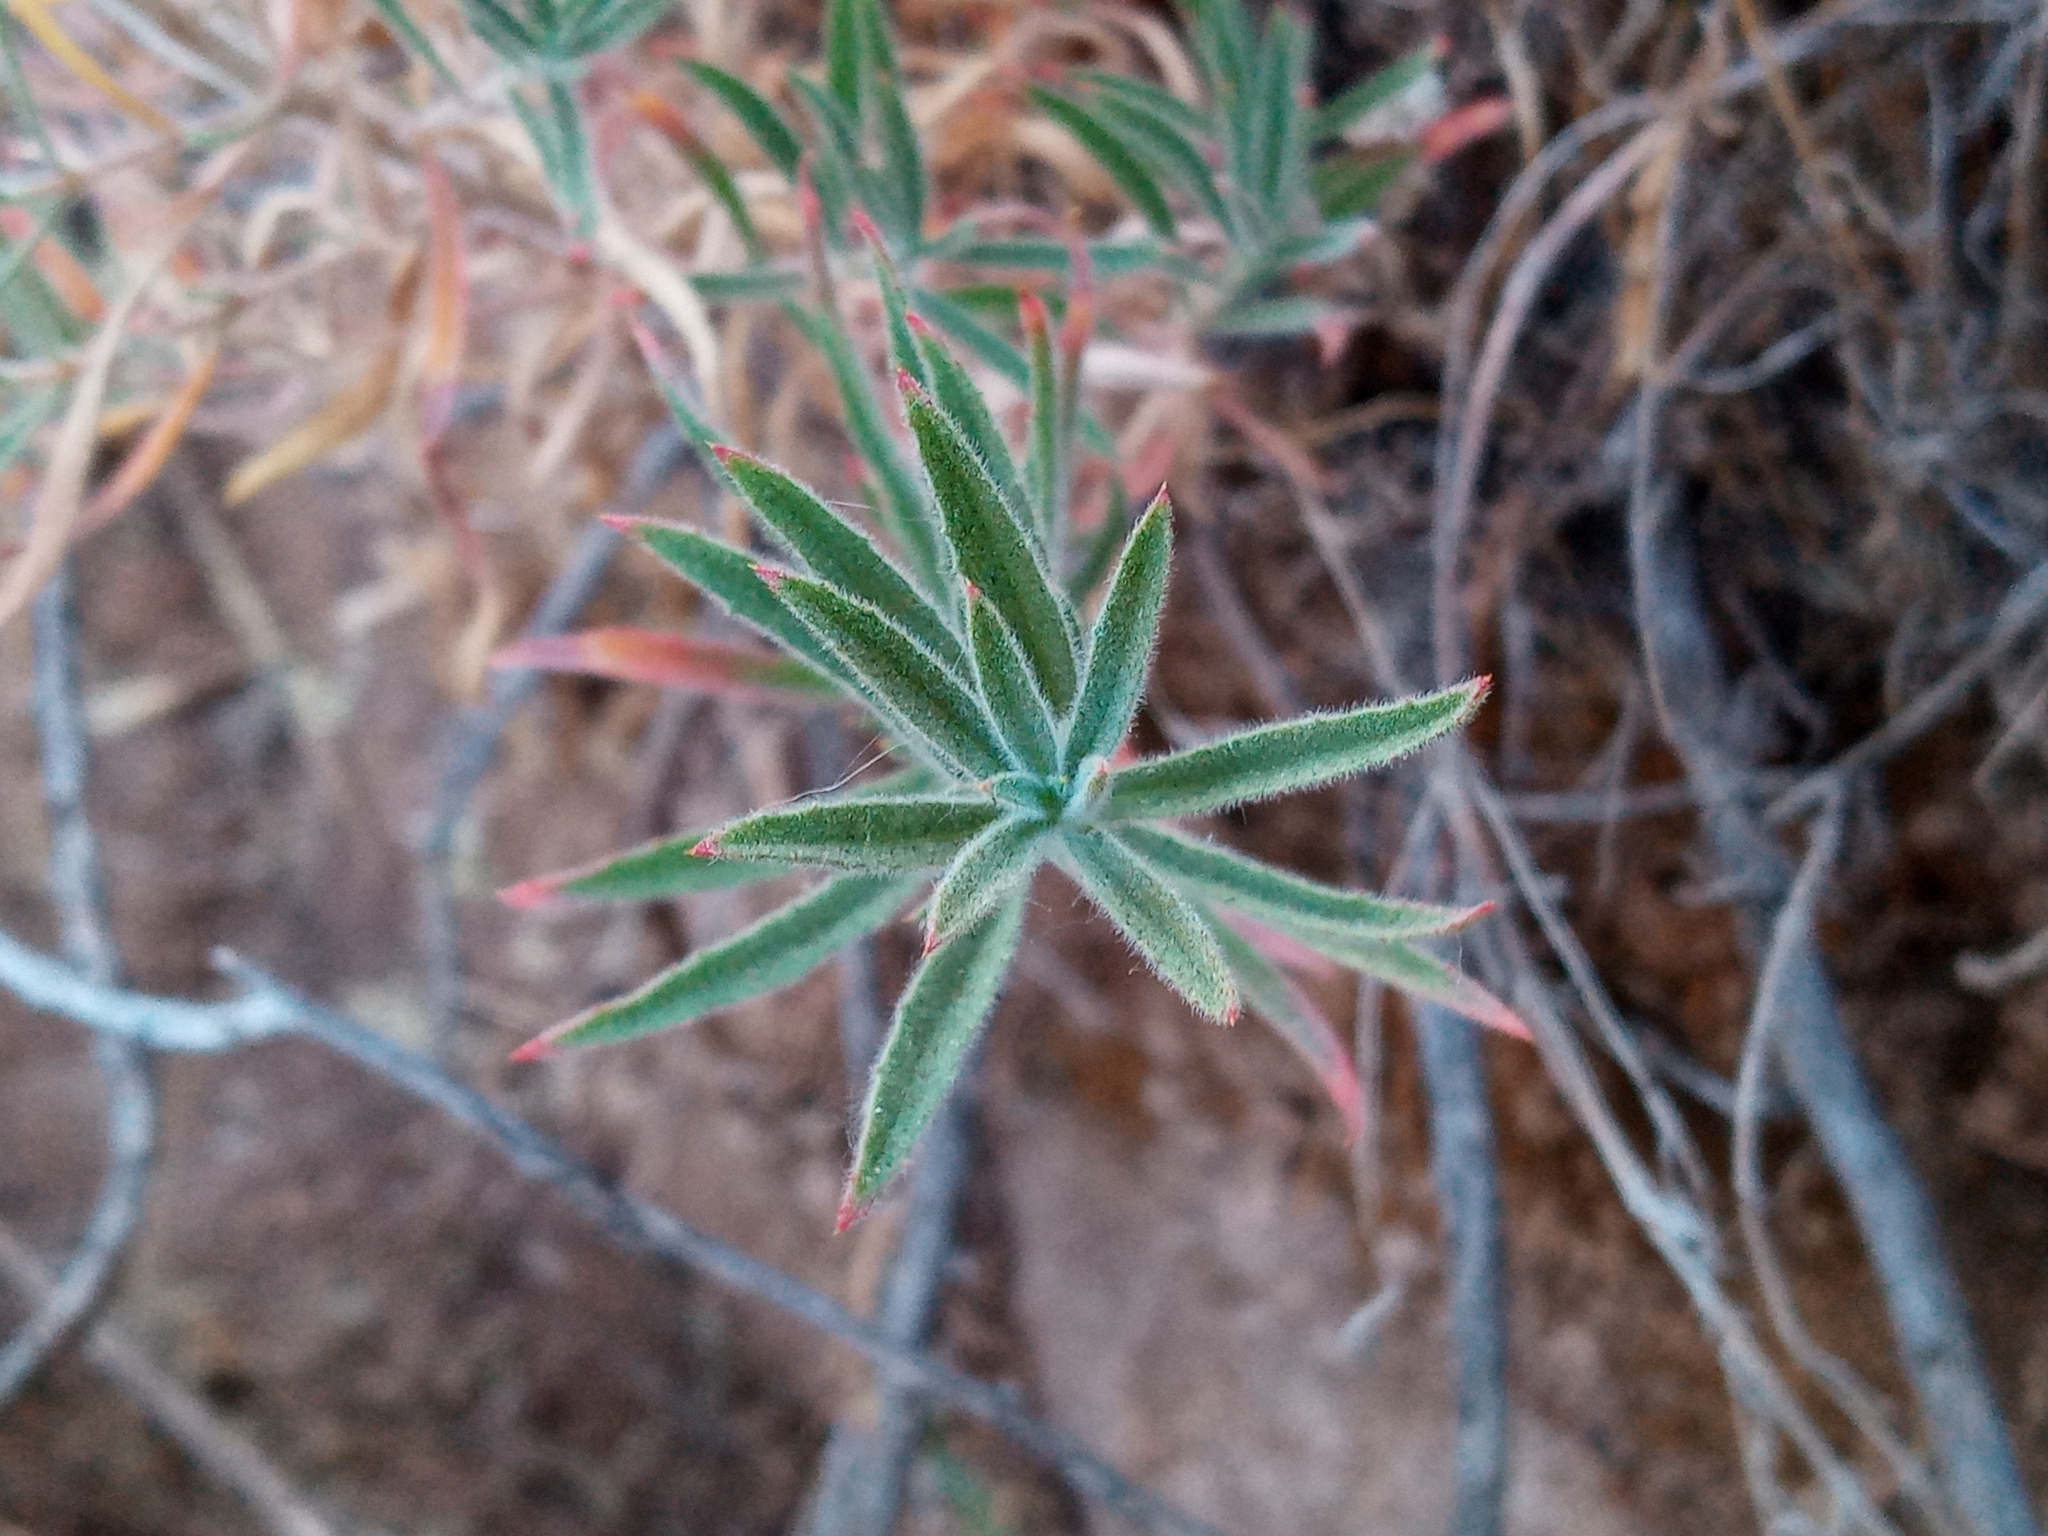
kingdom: Plantae
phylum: Tracheophyta
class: Magnoliopsida
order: Myrtales
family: Onagraceae
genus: Epilobium
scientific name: Epilobium canum
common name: California-fuchsia
